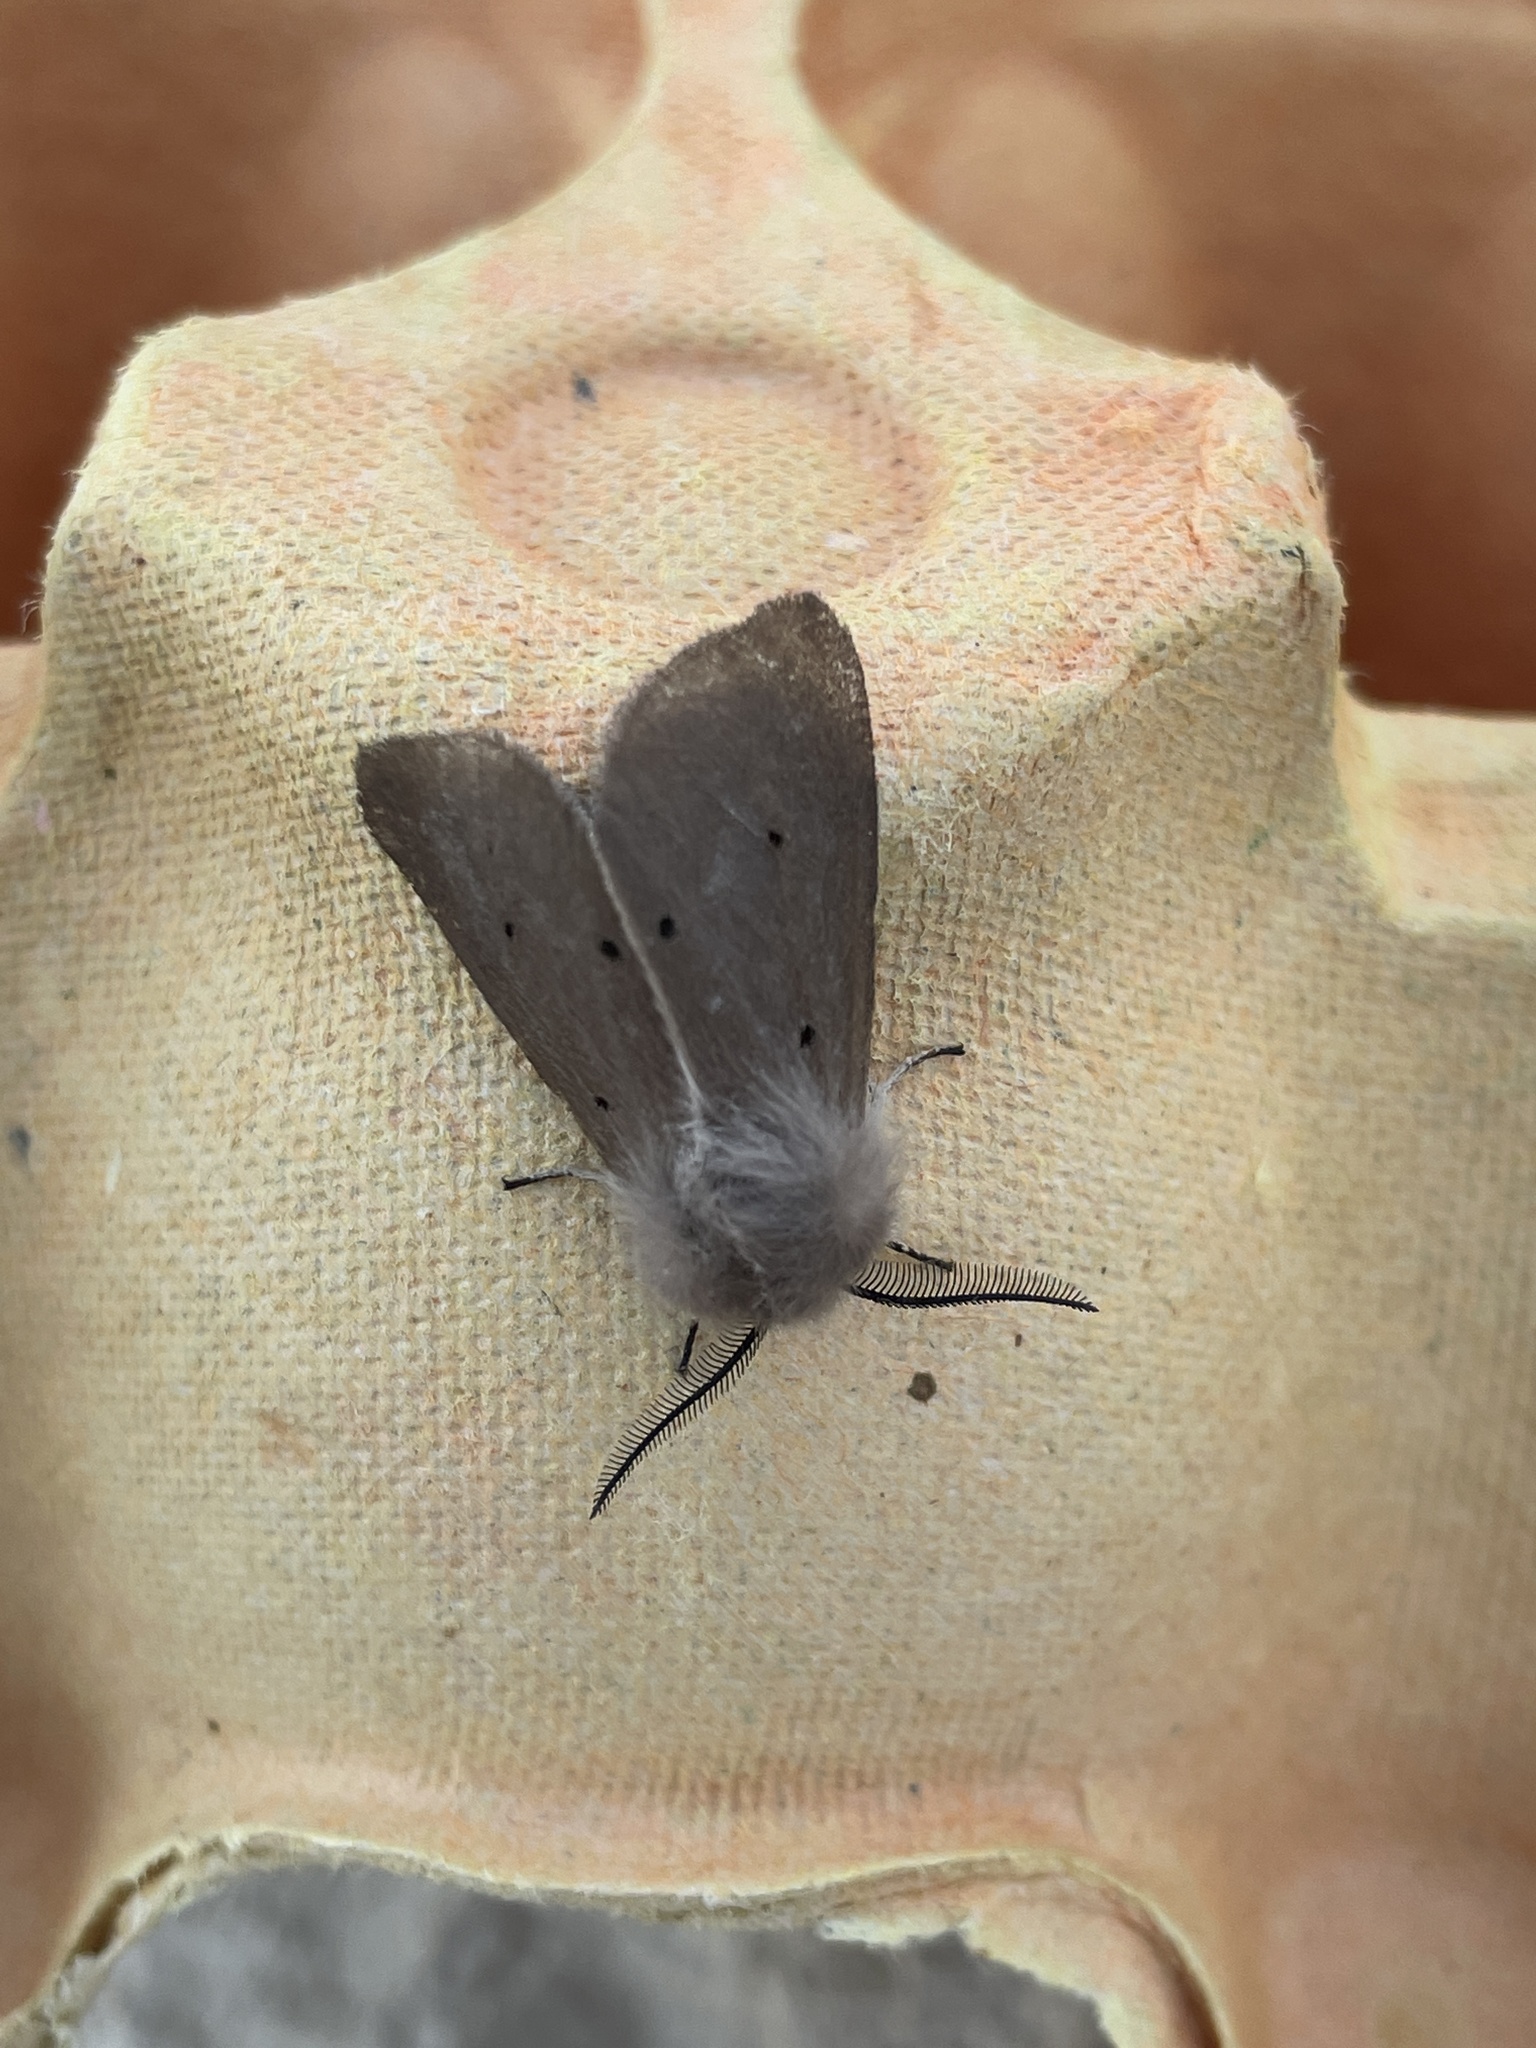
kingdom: Animalia
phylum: Arthropoda
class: Insecta
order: Lepidoptera
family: Erebidae
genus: Diaphora
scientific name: Diaphora mendica
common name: Muslin moth
